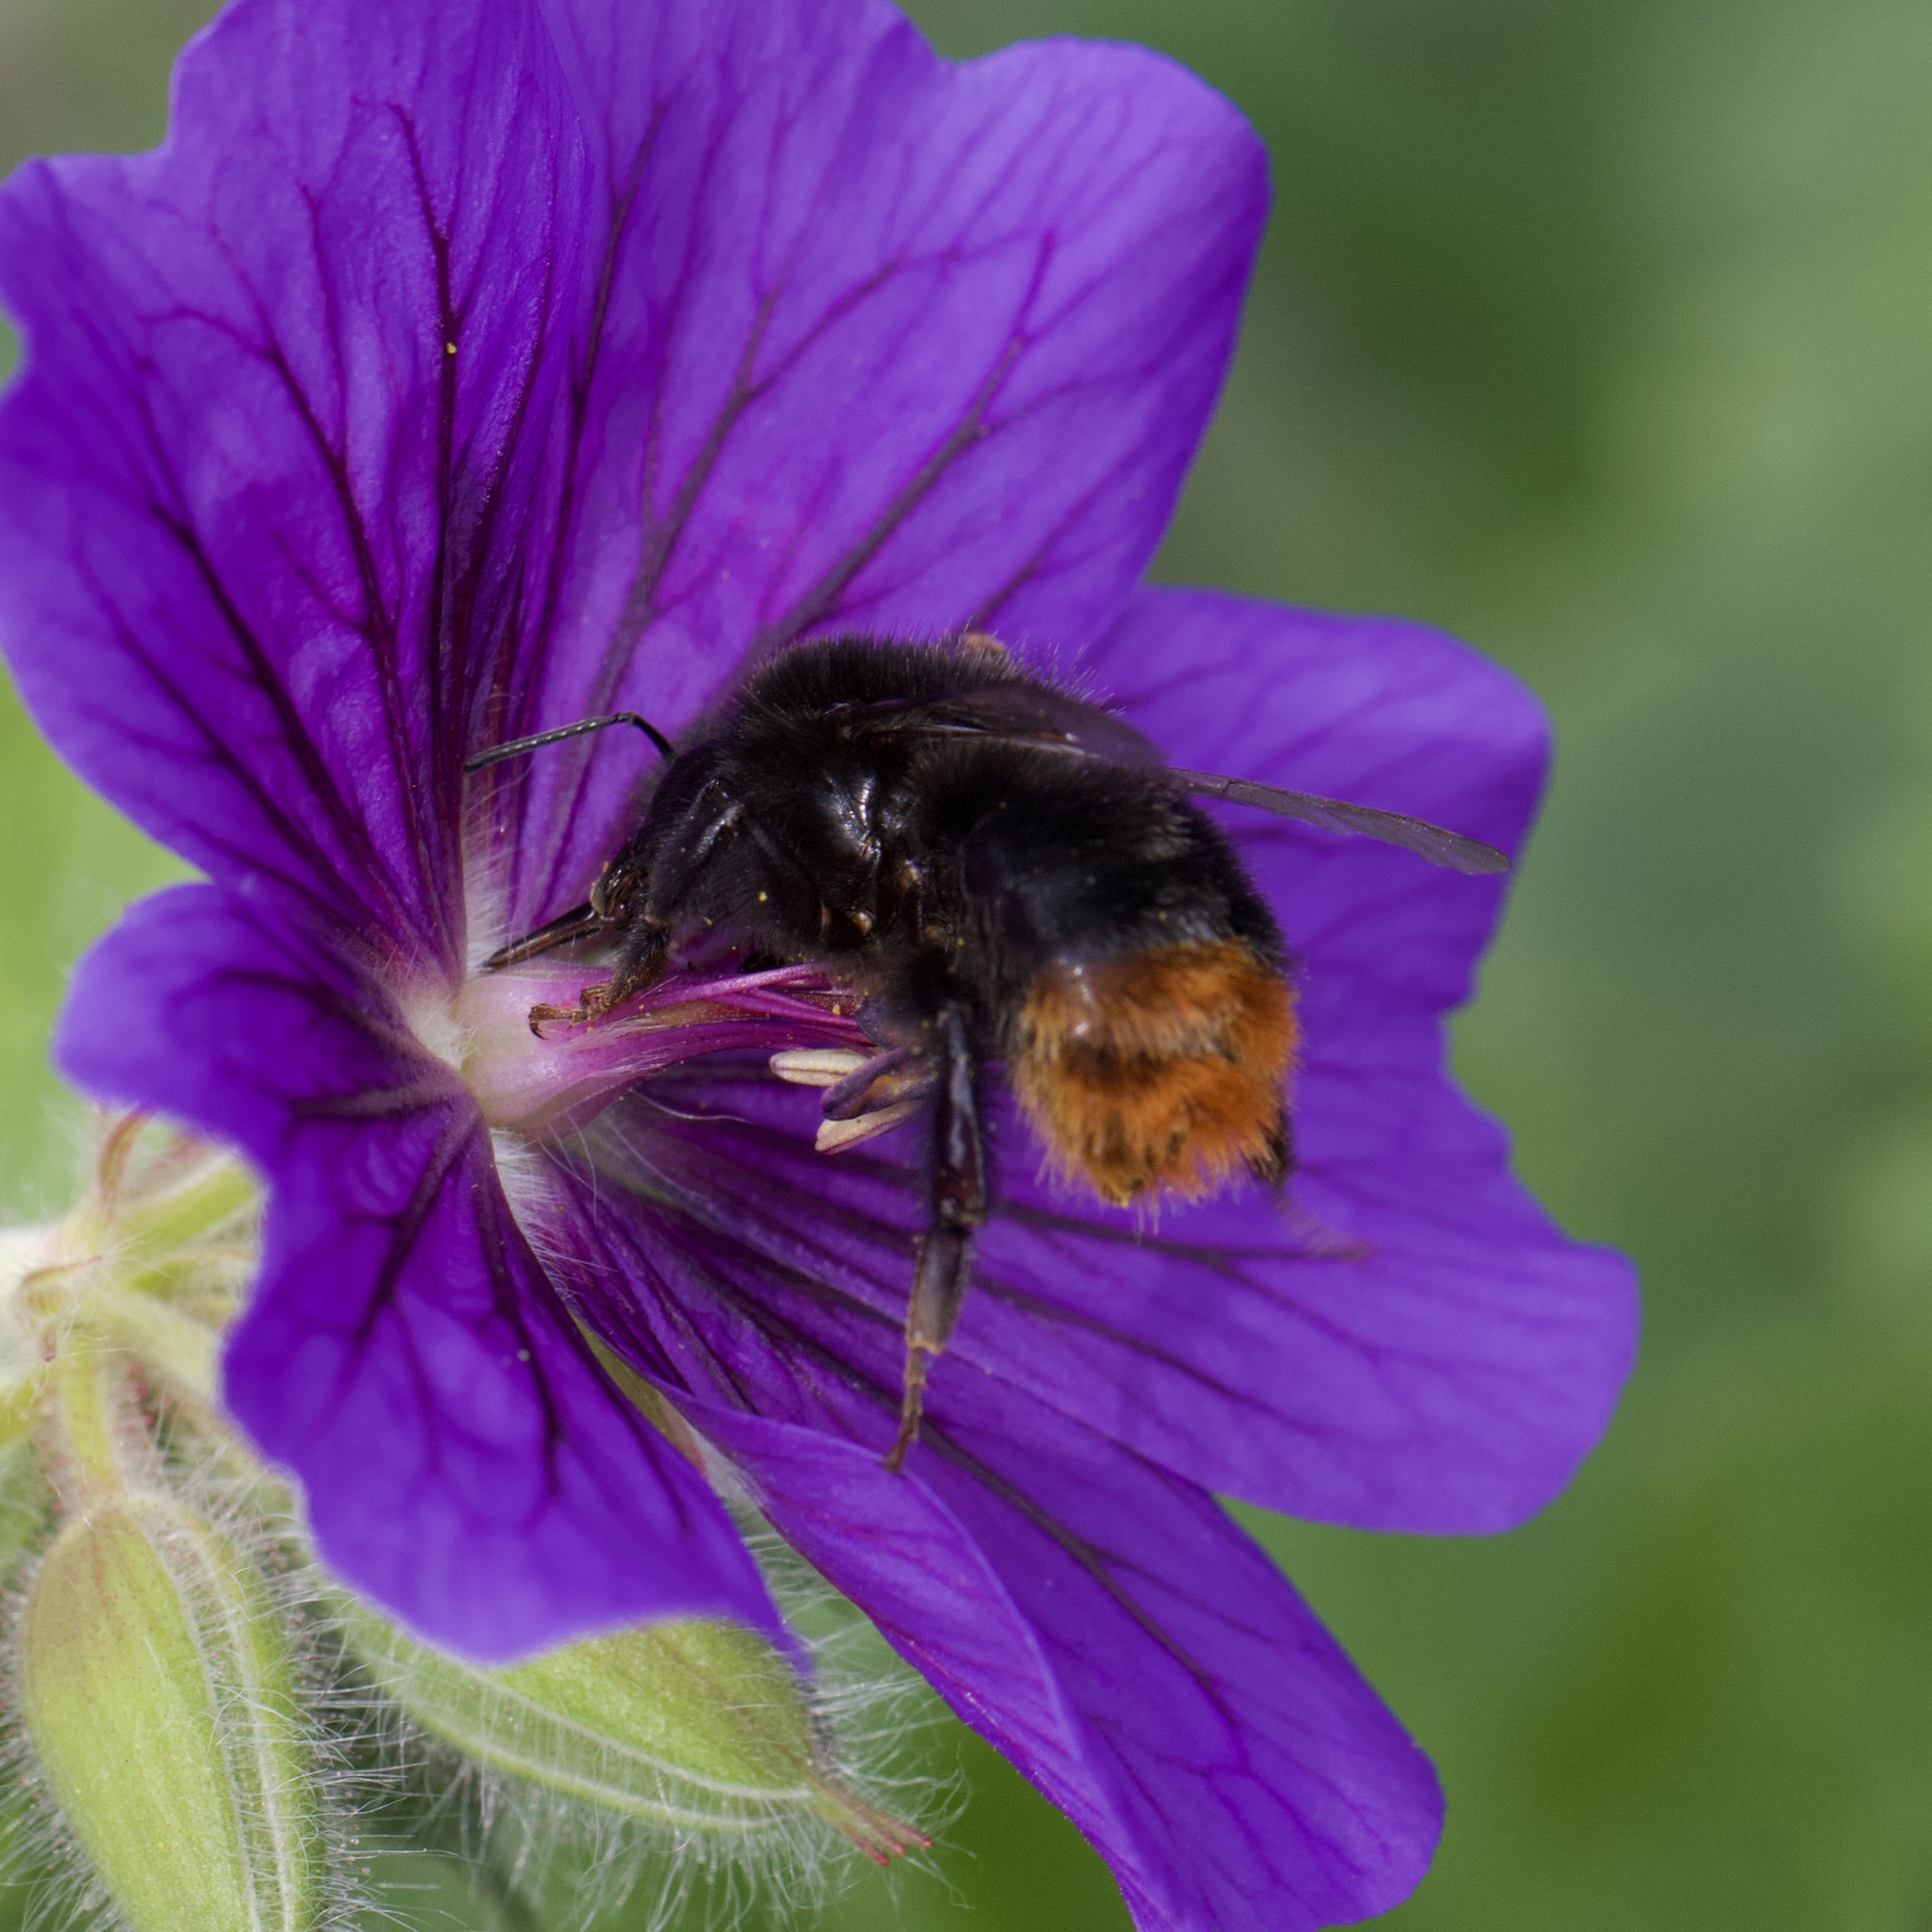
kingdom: Animalia
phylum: Arthropoda
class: Insecta
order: Hymenoptera
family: Apidae
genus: Bombus
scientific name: Bombus lapidarius
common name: Large red-tailed humble-bee
